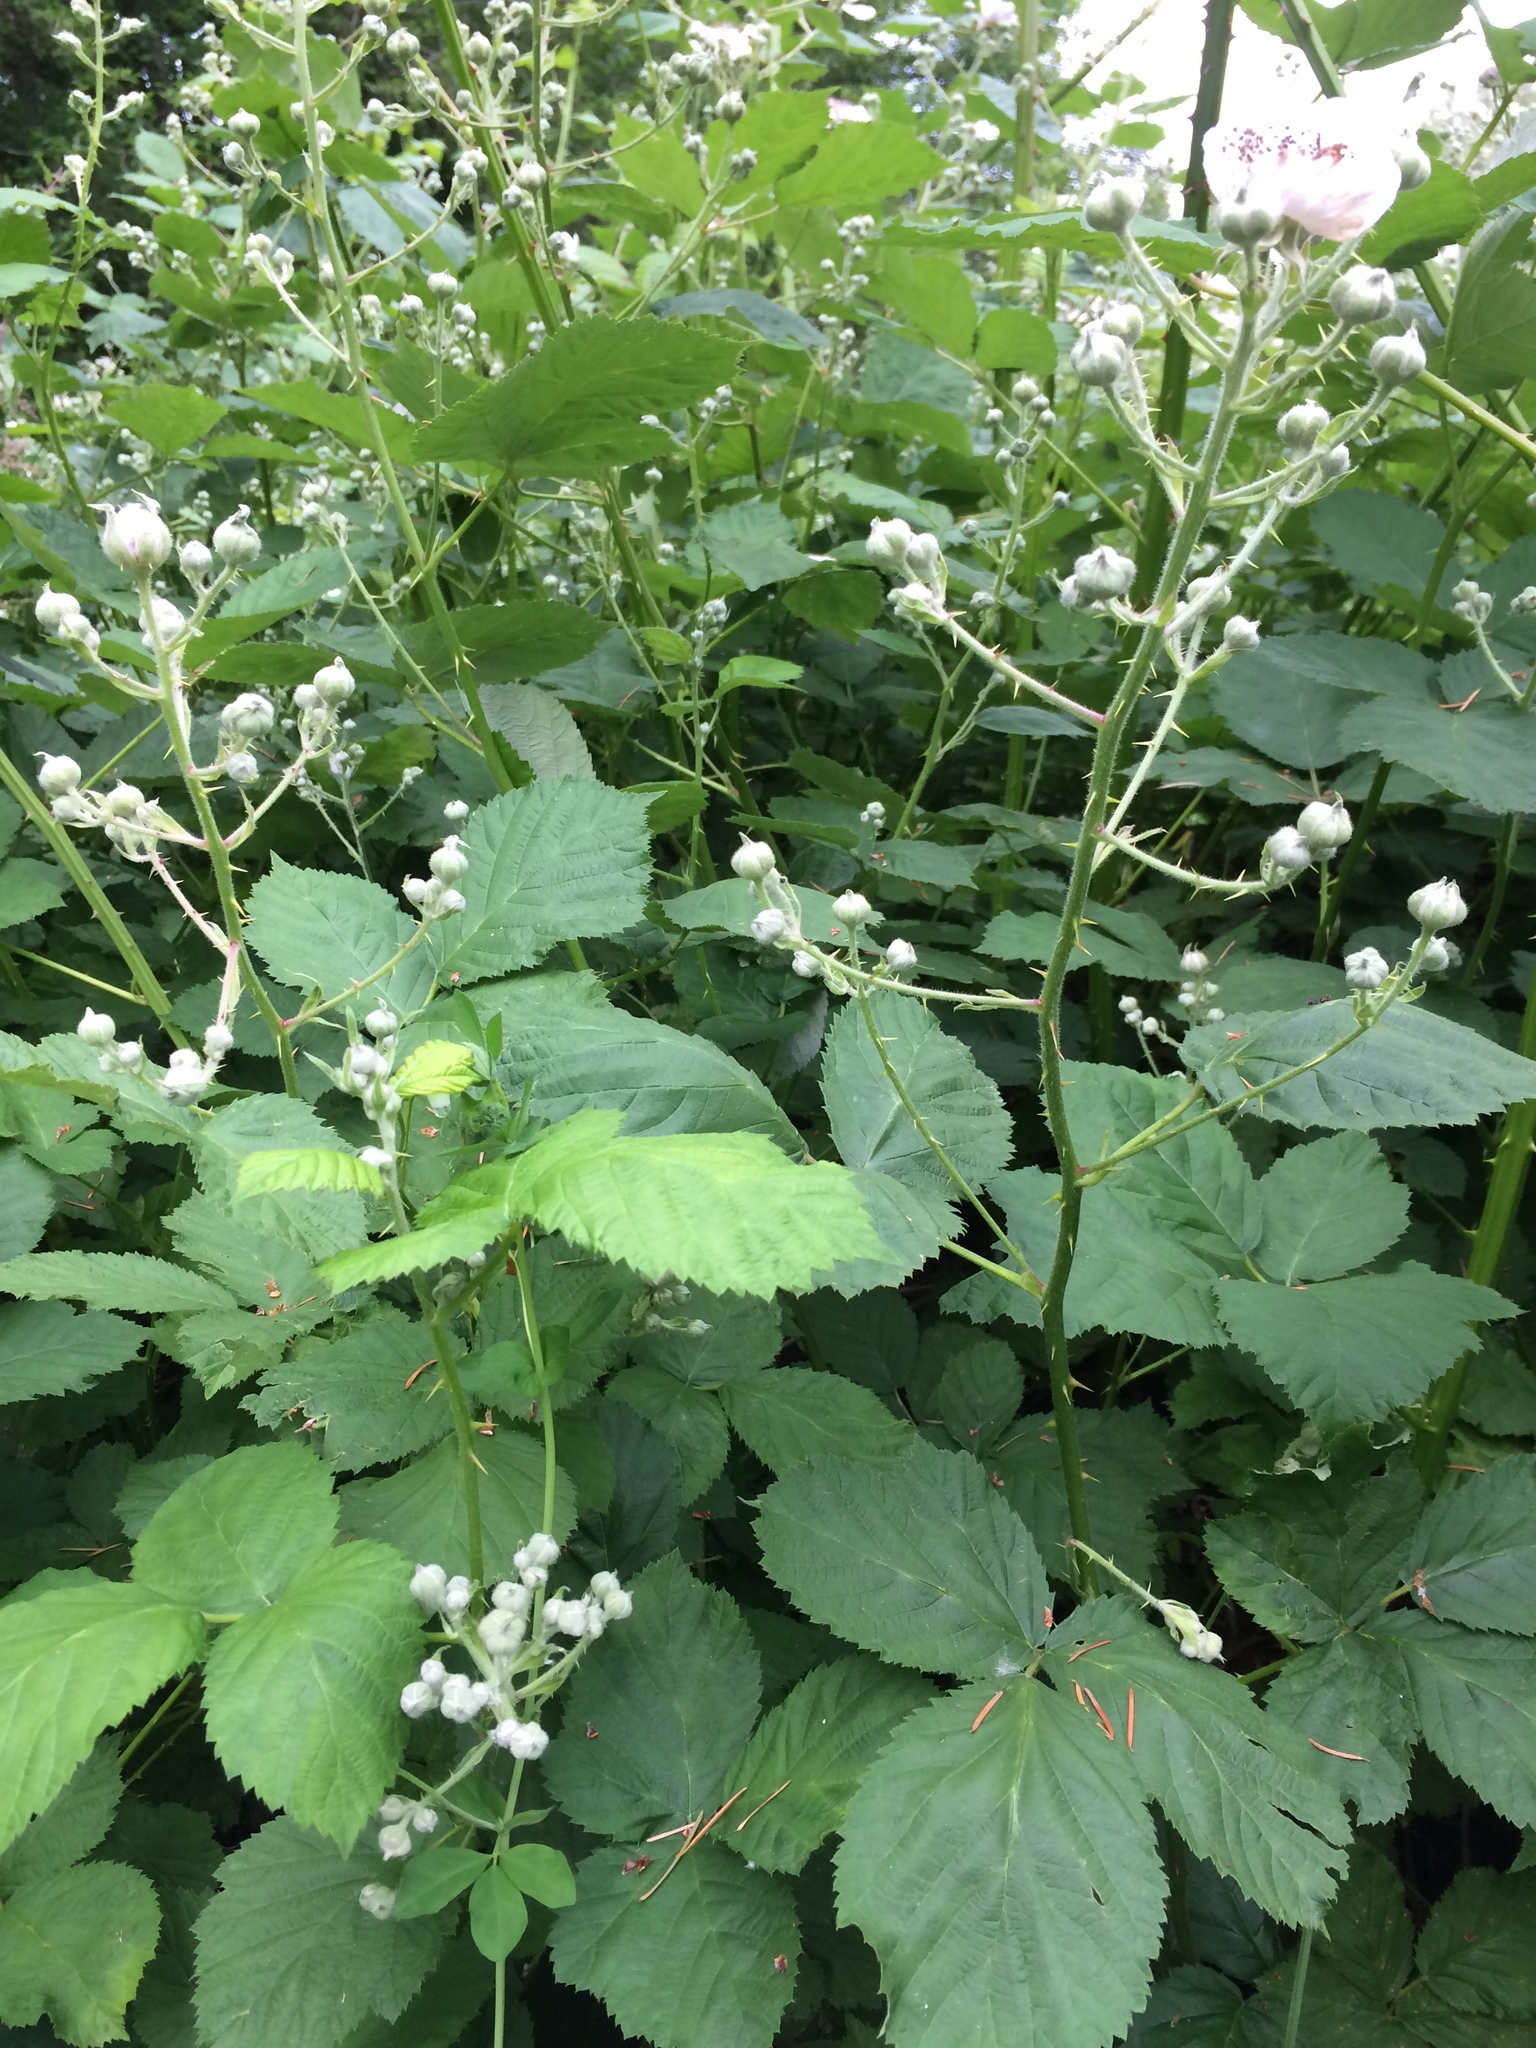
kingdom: Plantae
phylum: Tracheophyta
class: Magnoliopsida
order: Rosales
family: Rosaceae
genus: Rubus
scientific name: Rubus armeniacus
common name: Himalayan blackberry
